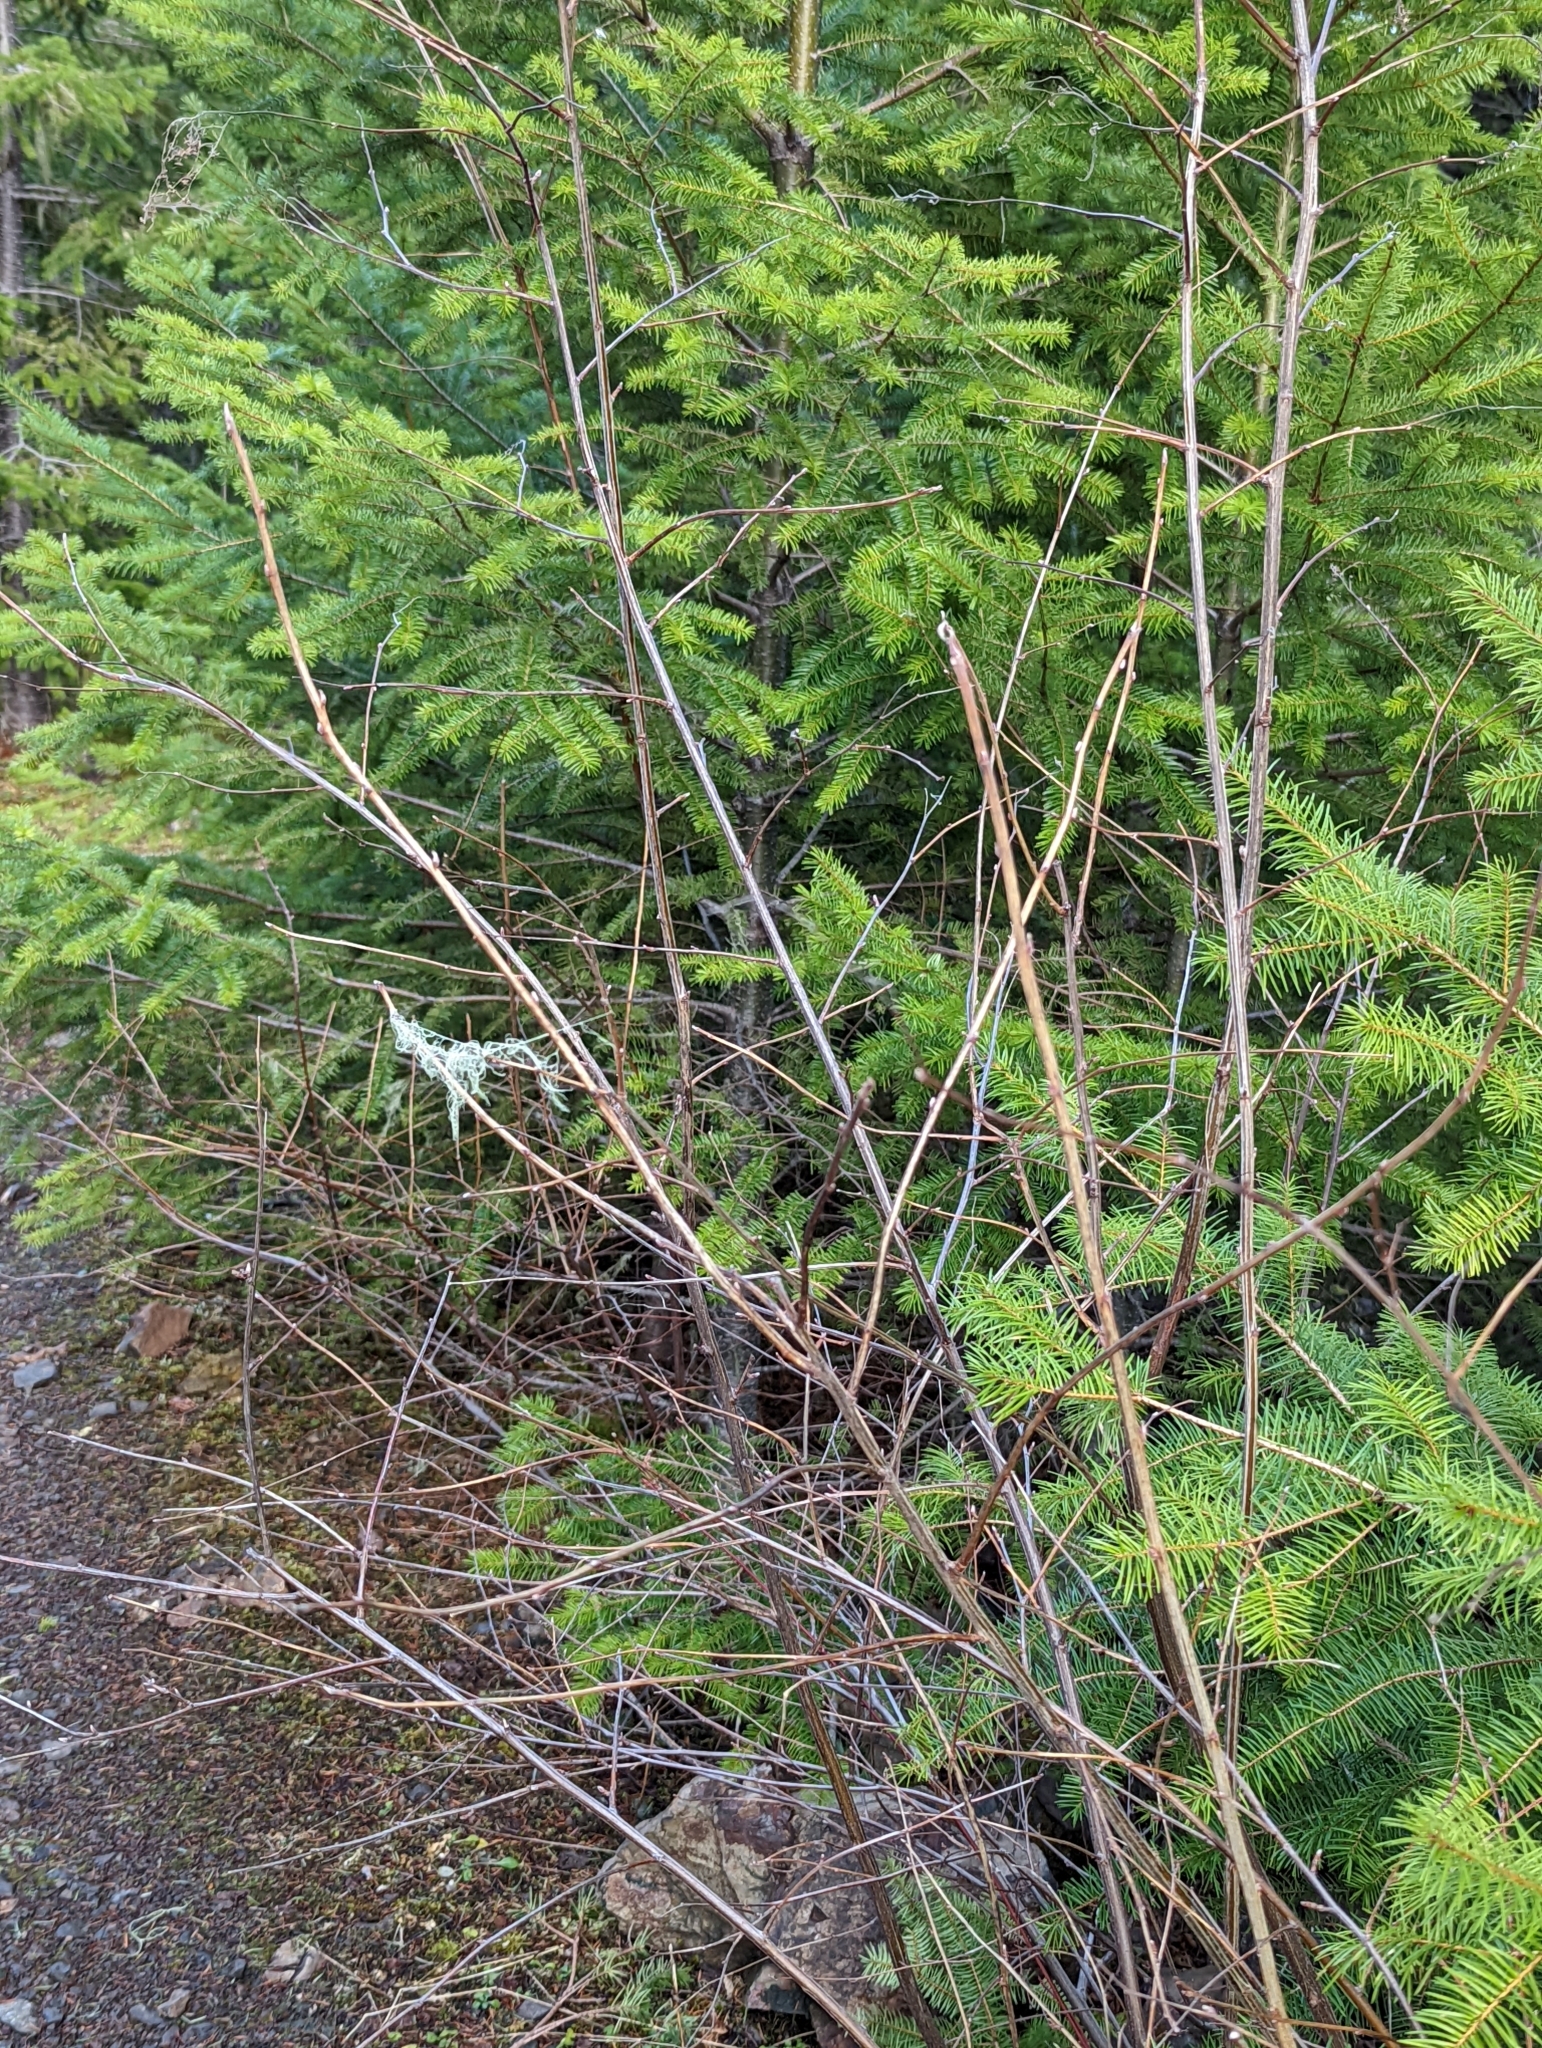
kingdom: Plantae
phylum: Tracheophyta
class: Magnoliopsida
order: Rosales
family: Rosaceae
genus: Holodiscus
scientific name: Holodiscus discolor
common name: Oceanspray
